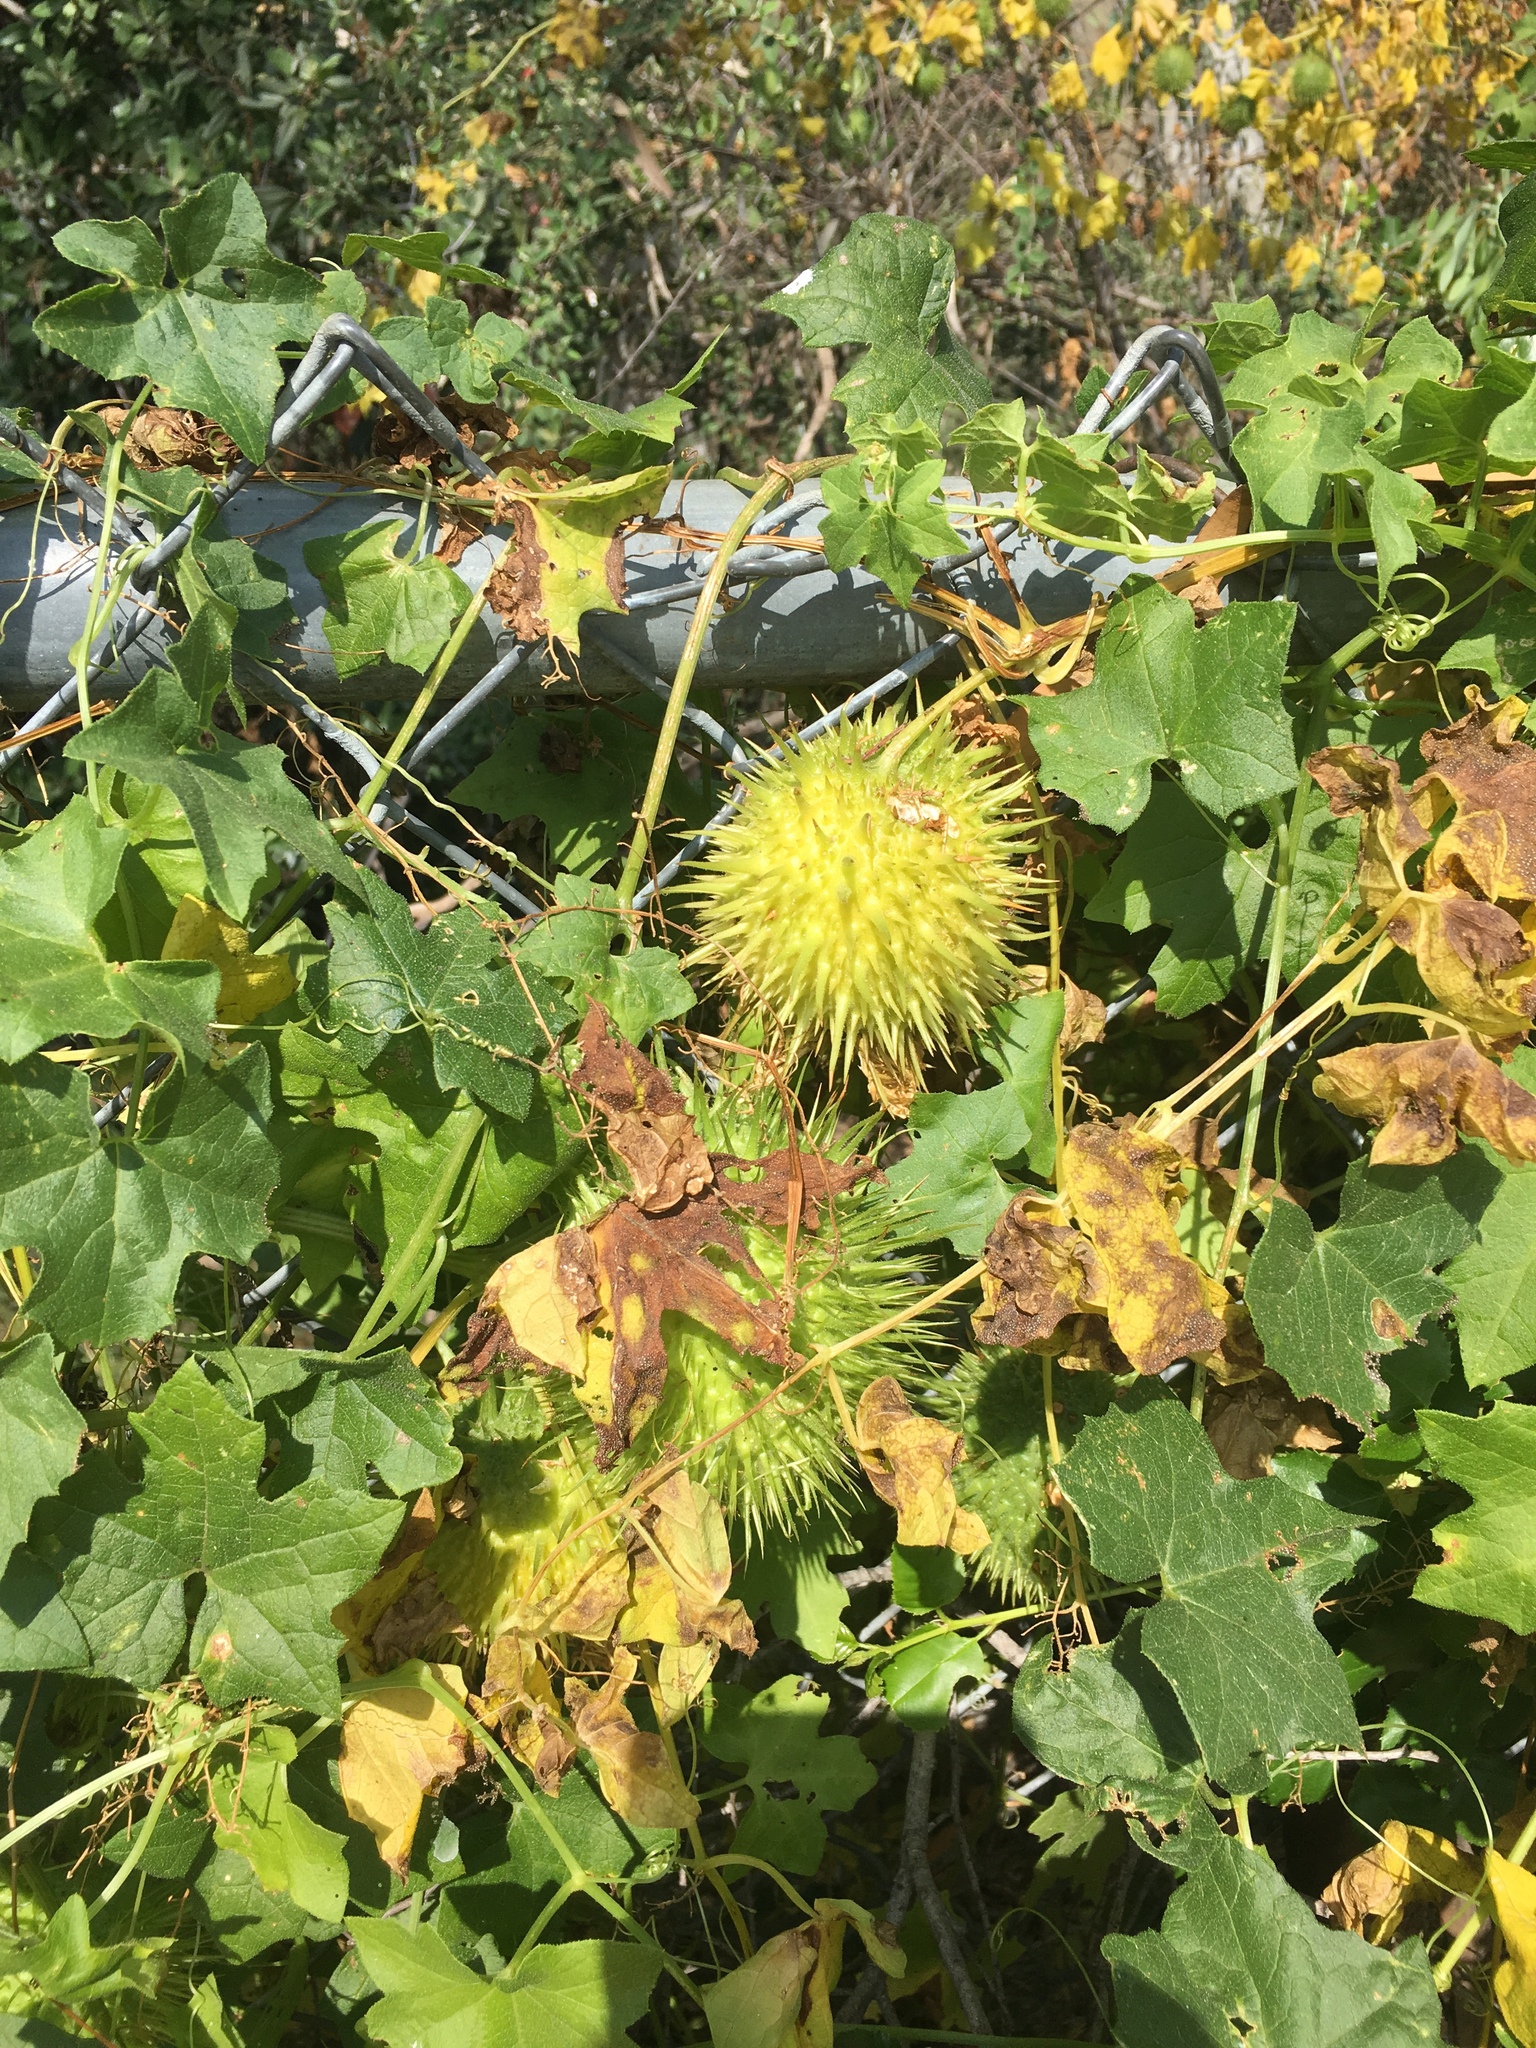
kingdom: Plantae
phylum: Tracheophyta
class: Magnoliopsida
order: Cucurbitales
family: Cucurbitaceae
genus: Marah
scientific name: Marah macrocarpa
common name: Cucamonga manroot
